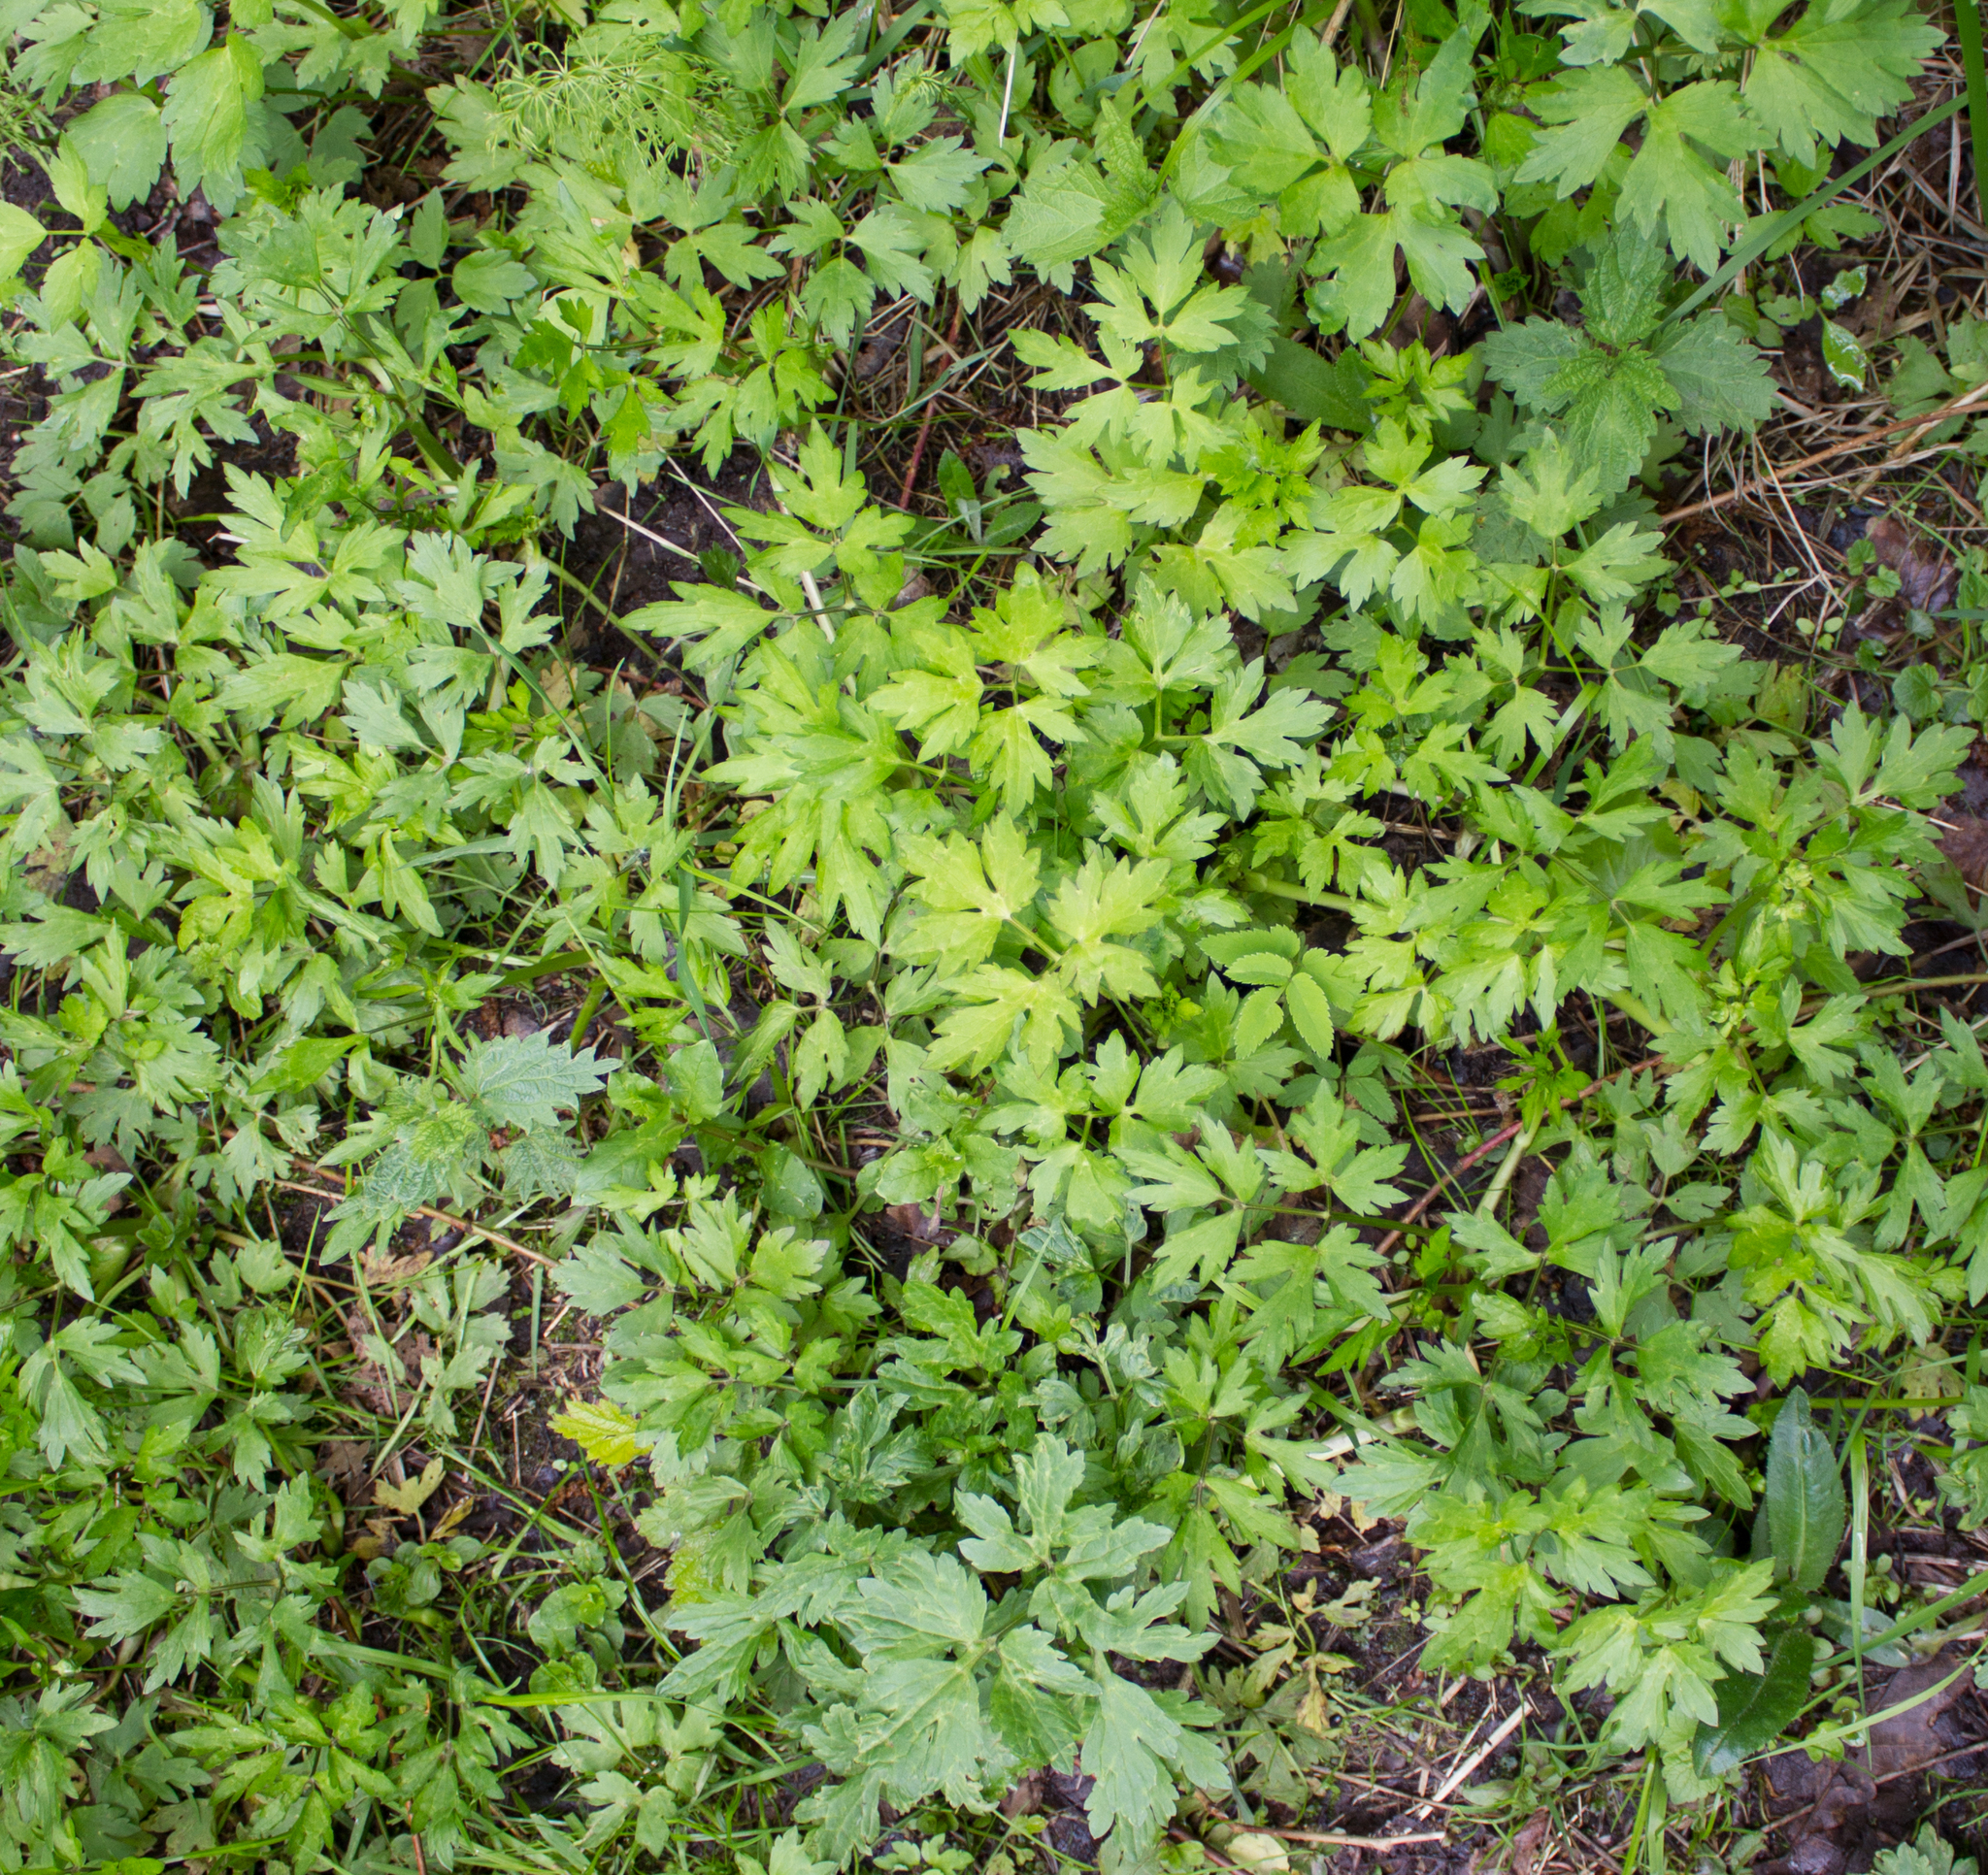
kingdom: Plantae
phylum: Tracheophyta
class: Magnoliopsida
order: Ranunculales
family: Ranunculaceae
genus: Ranunculus
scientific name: Ranunculus repens
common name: Creeping buttercup
